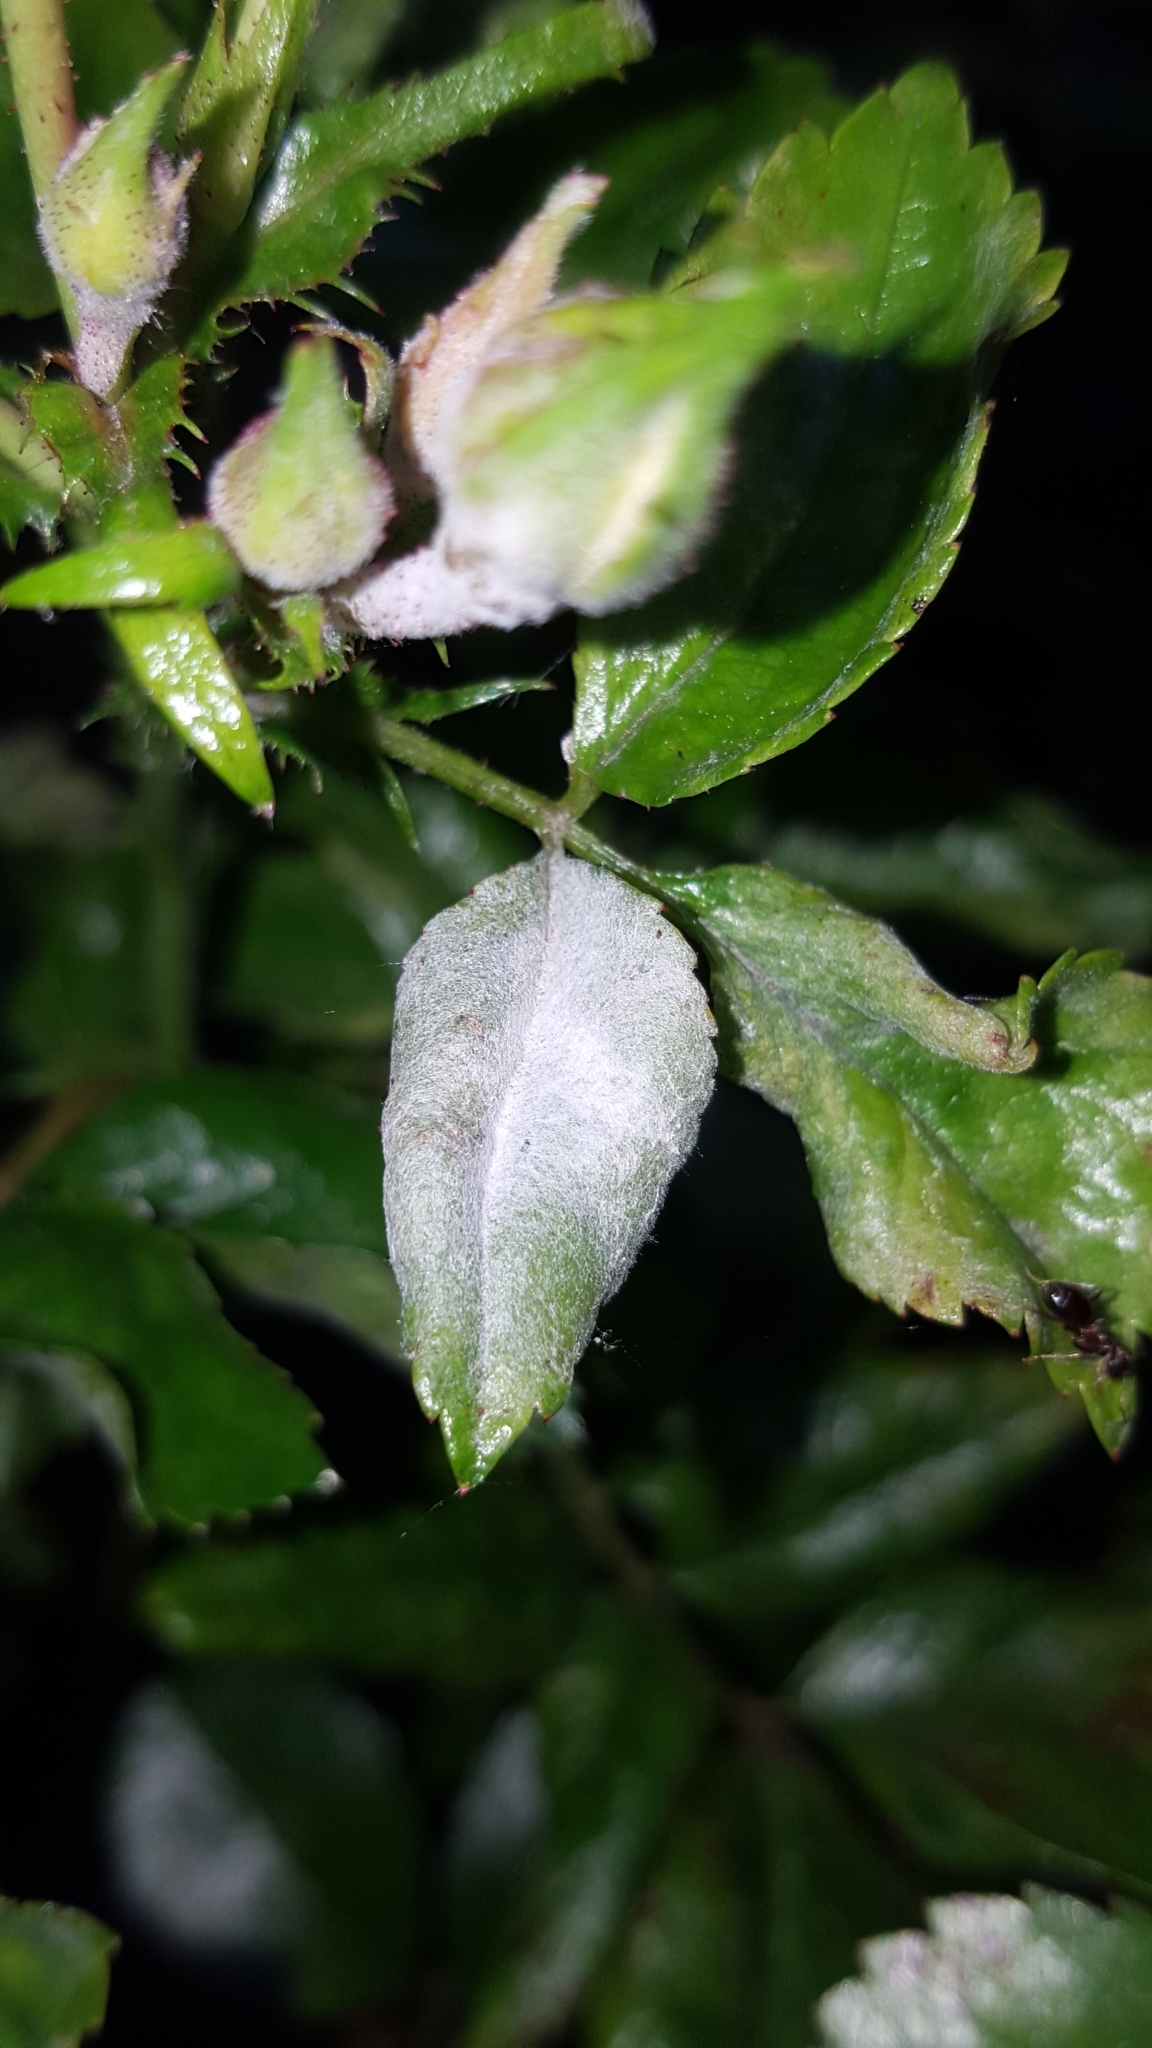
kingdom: Fungi
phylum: Ascomycota
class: Leotiomycetes
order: Helotiales
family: Erysiphaceae
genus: Podosphaera
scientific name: Podosphaera pannosa
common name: Rose mildew
